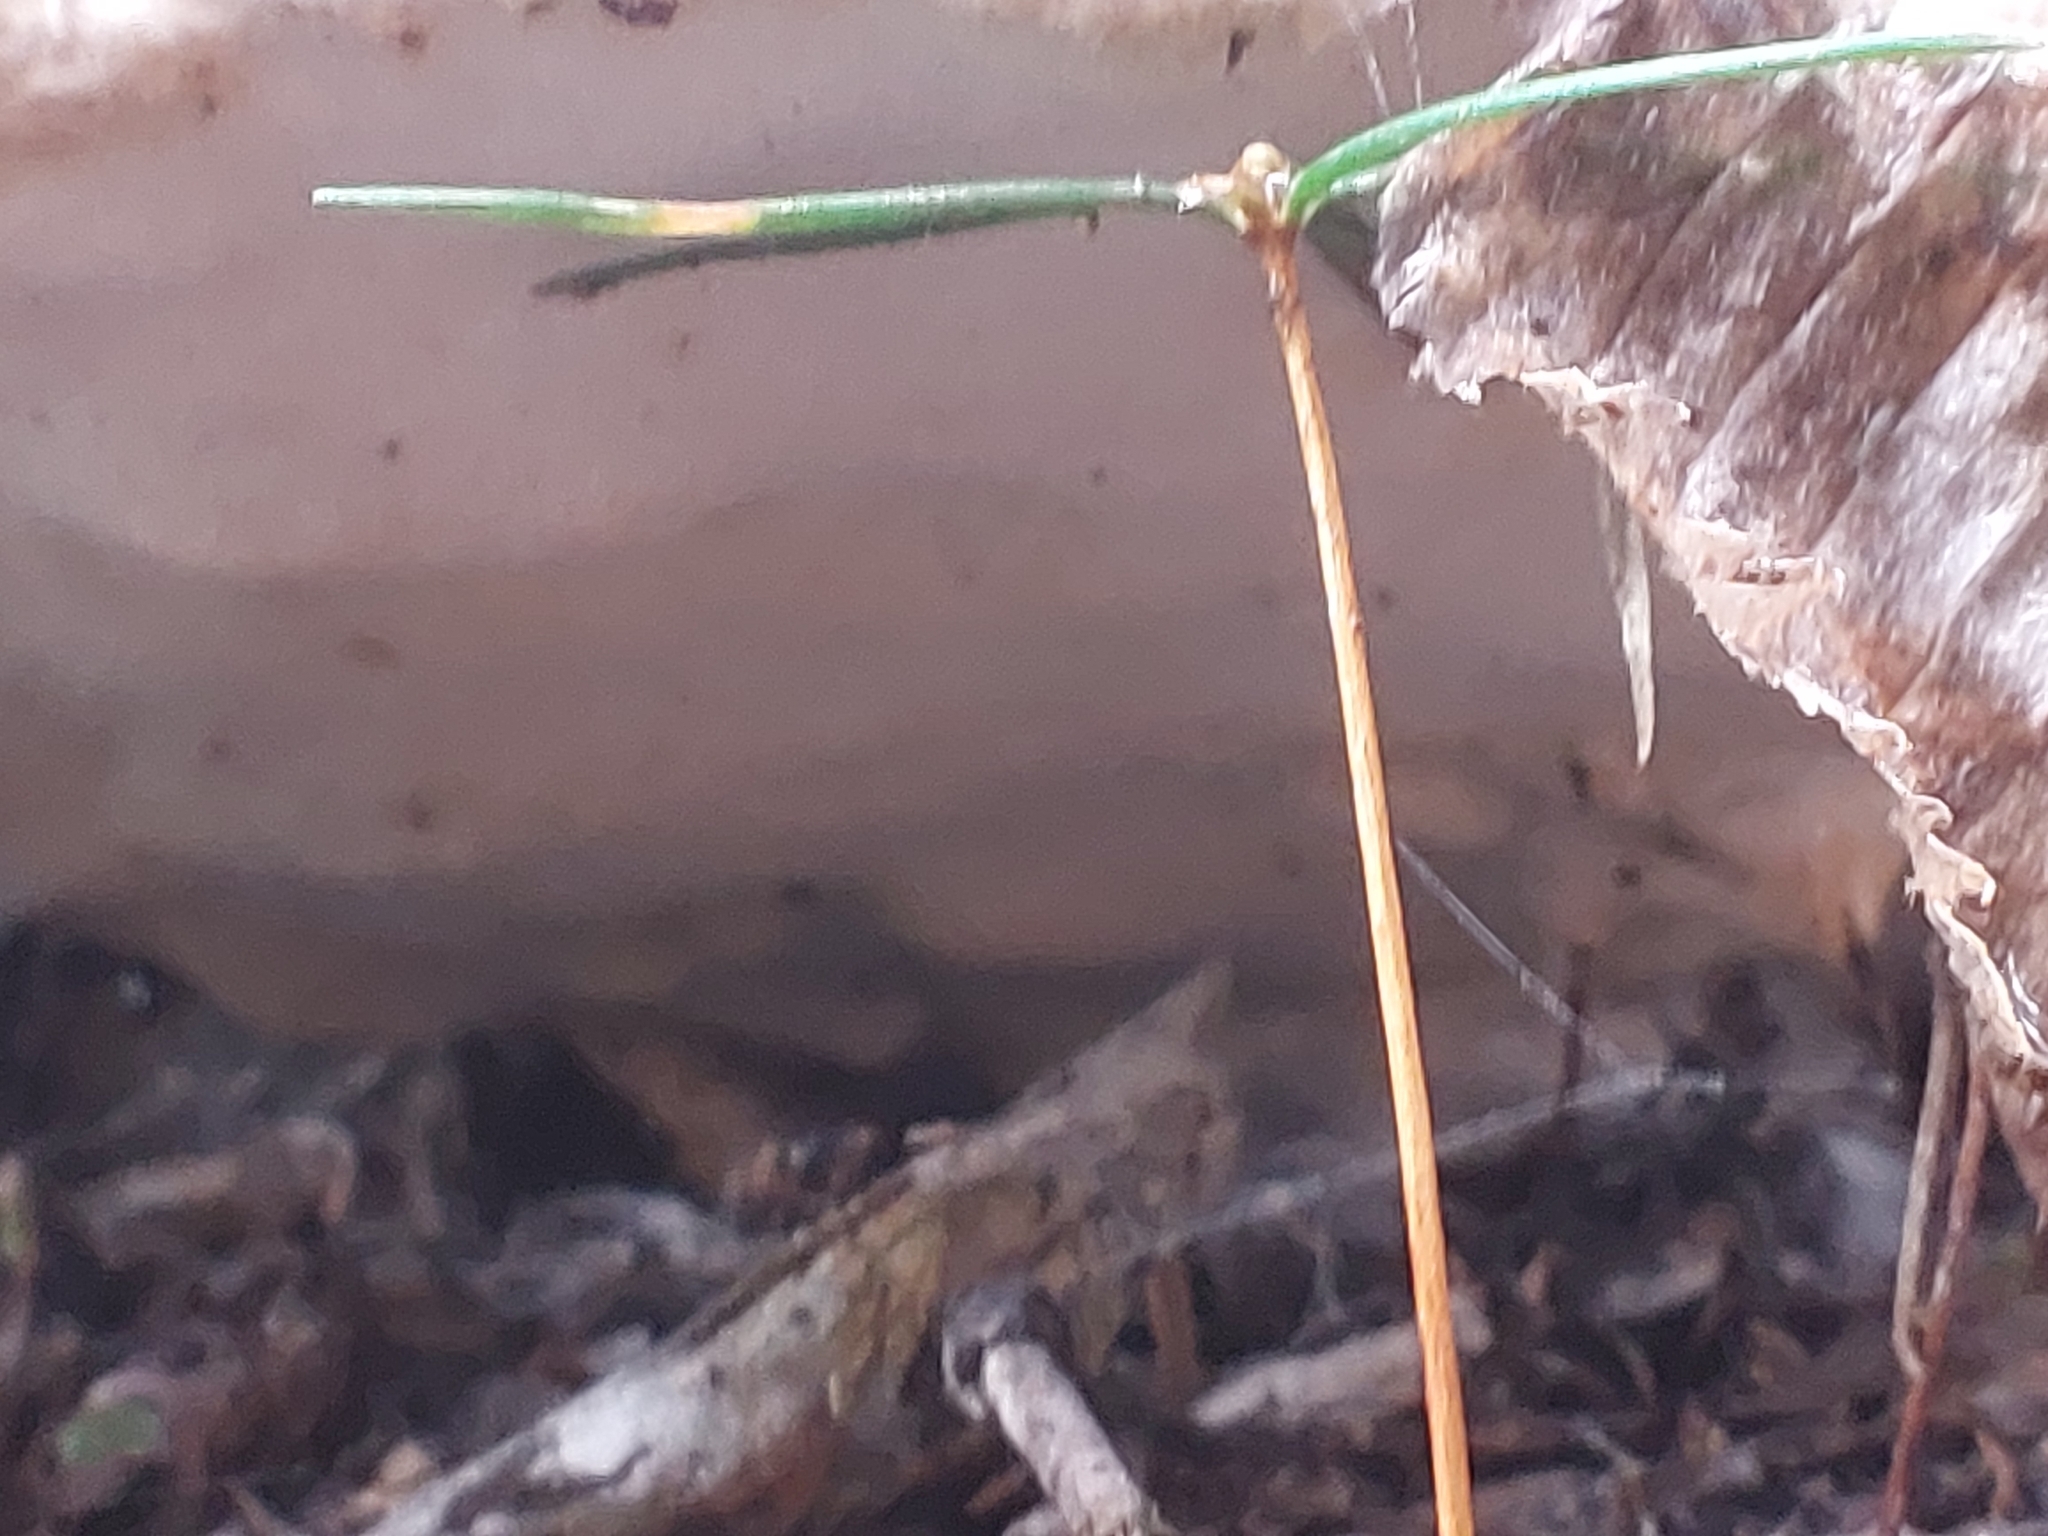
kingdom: Fungi
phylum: Basidiomycota
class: Agaricomycetes
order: Polyporales
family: Fomitopsidaceae
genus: Fomitopsis
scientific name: Fomitopsis pinicola
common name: Red-belted bracket
